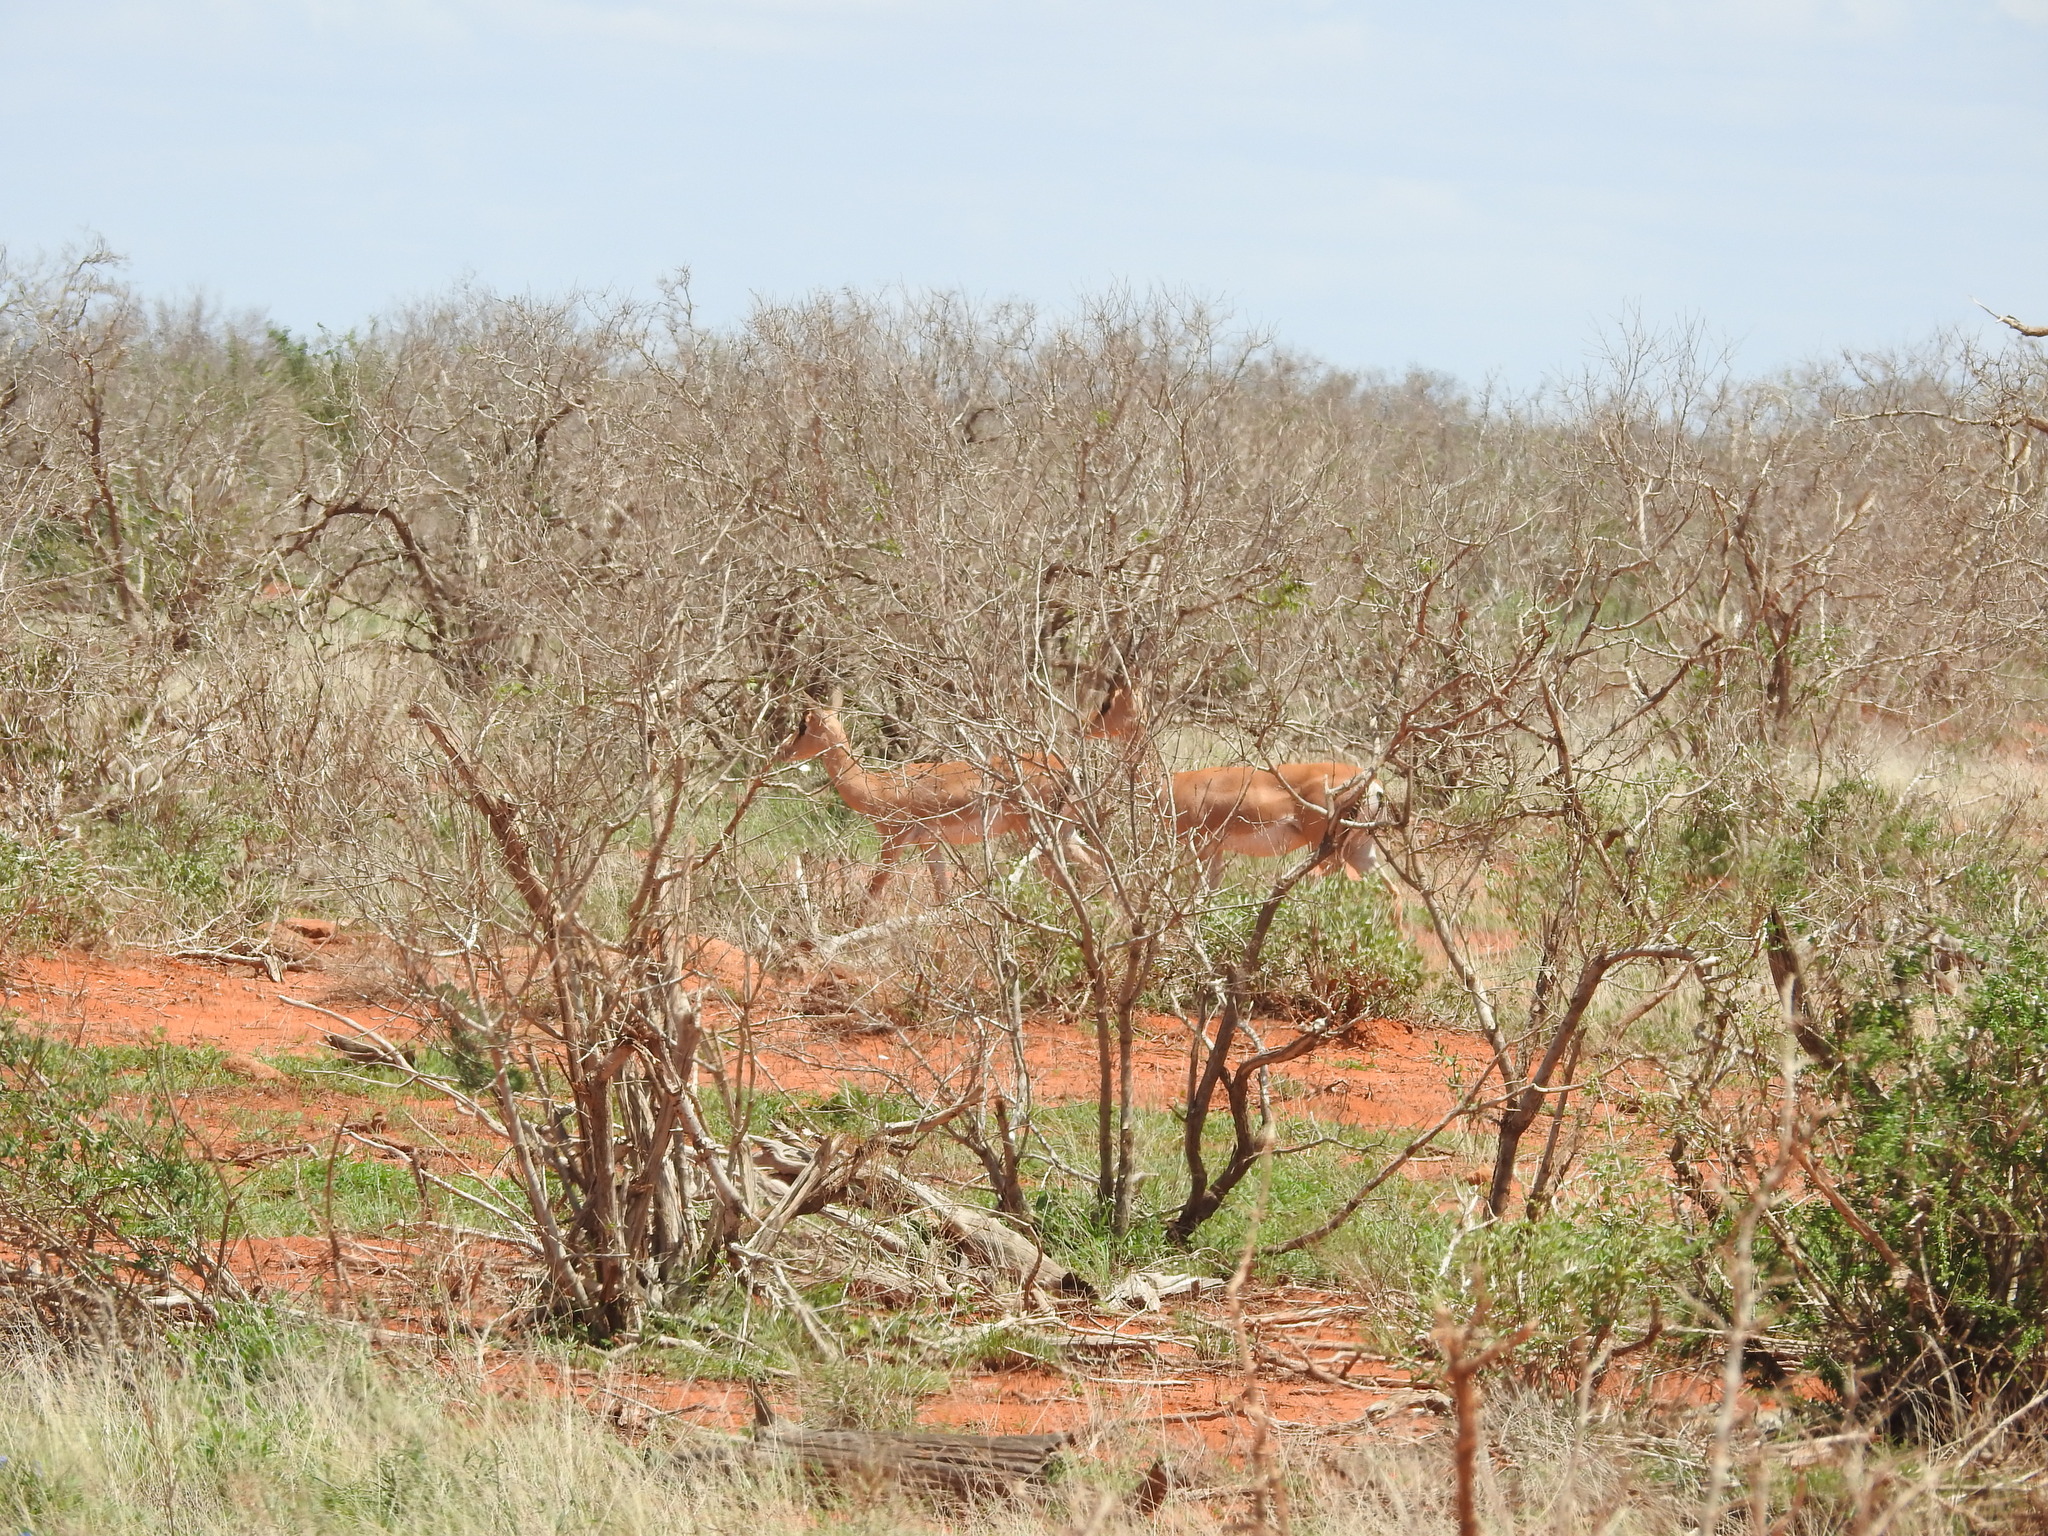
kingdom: Animalia
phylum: Chordata
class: Mammalia
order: Artiodactyla
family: Bovidae
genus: Nanger
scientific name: Nanger granti
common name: Grant's gazelle
